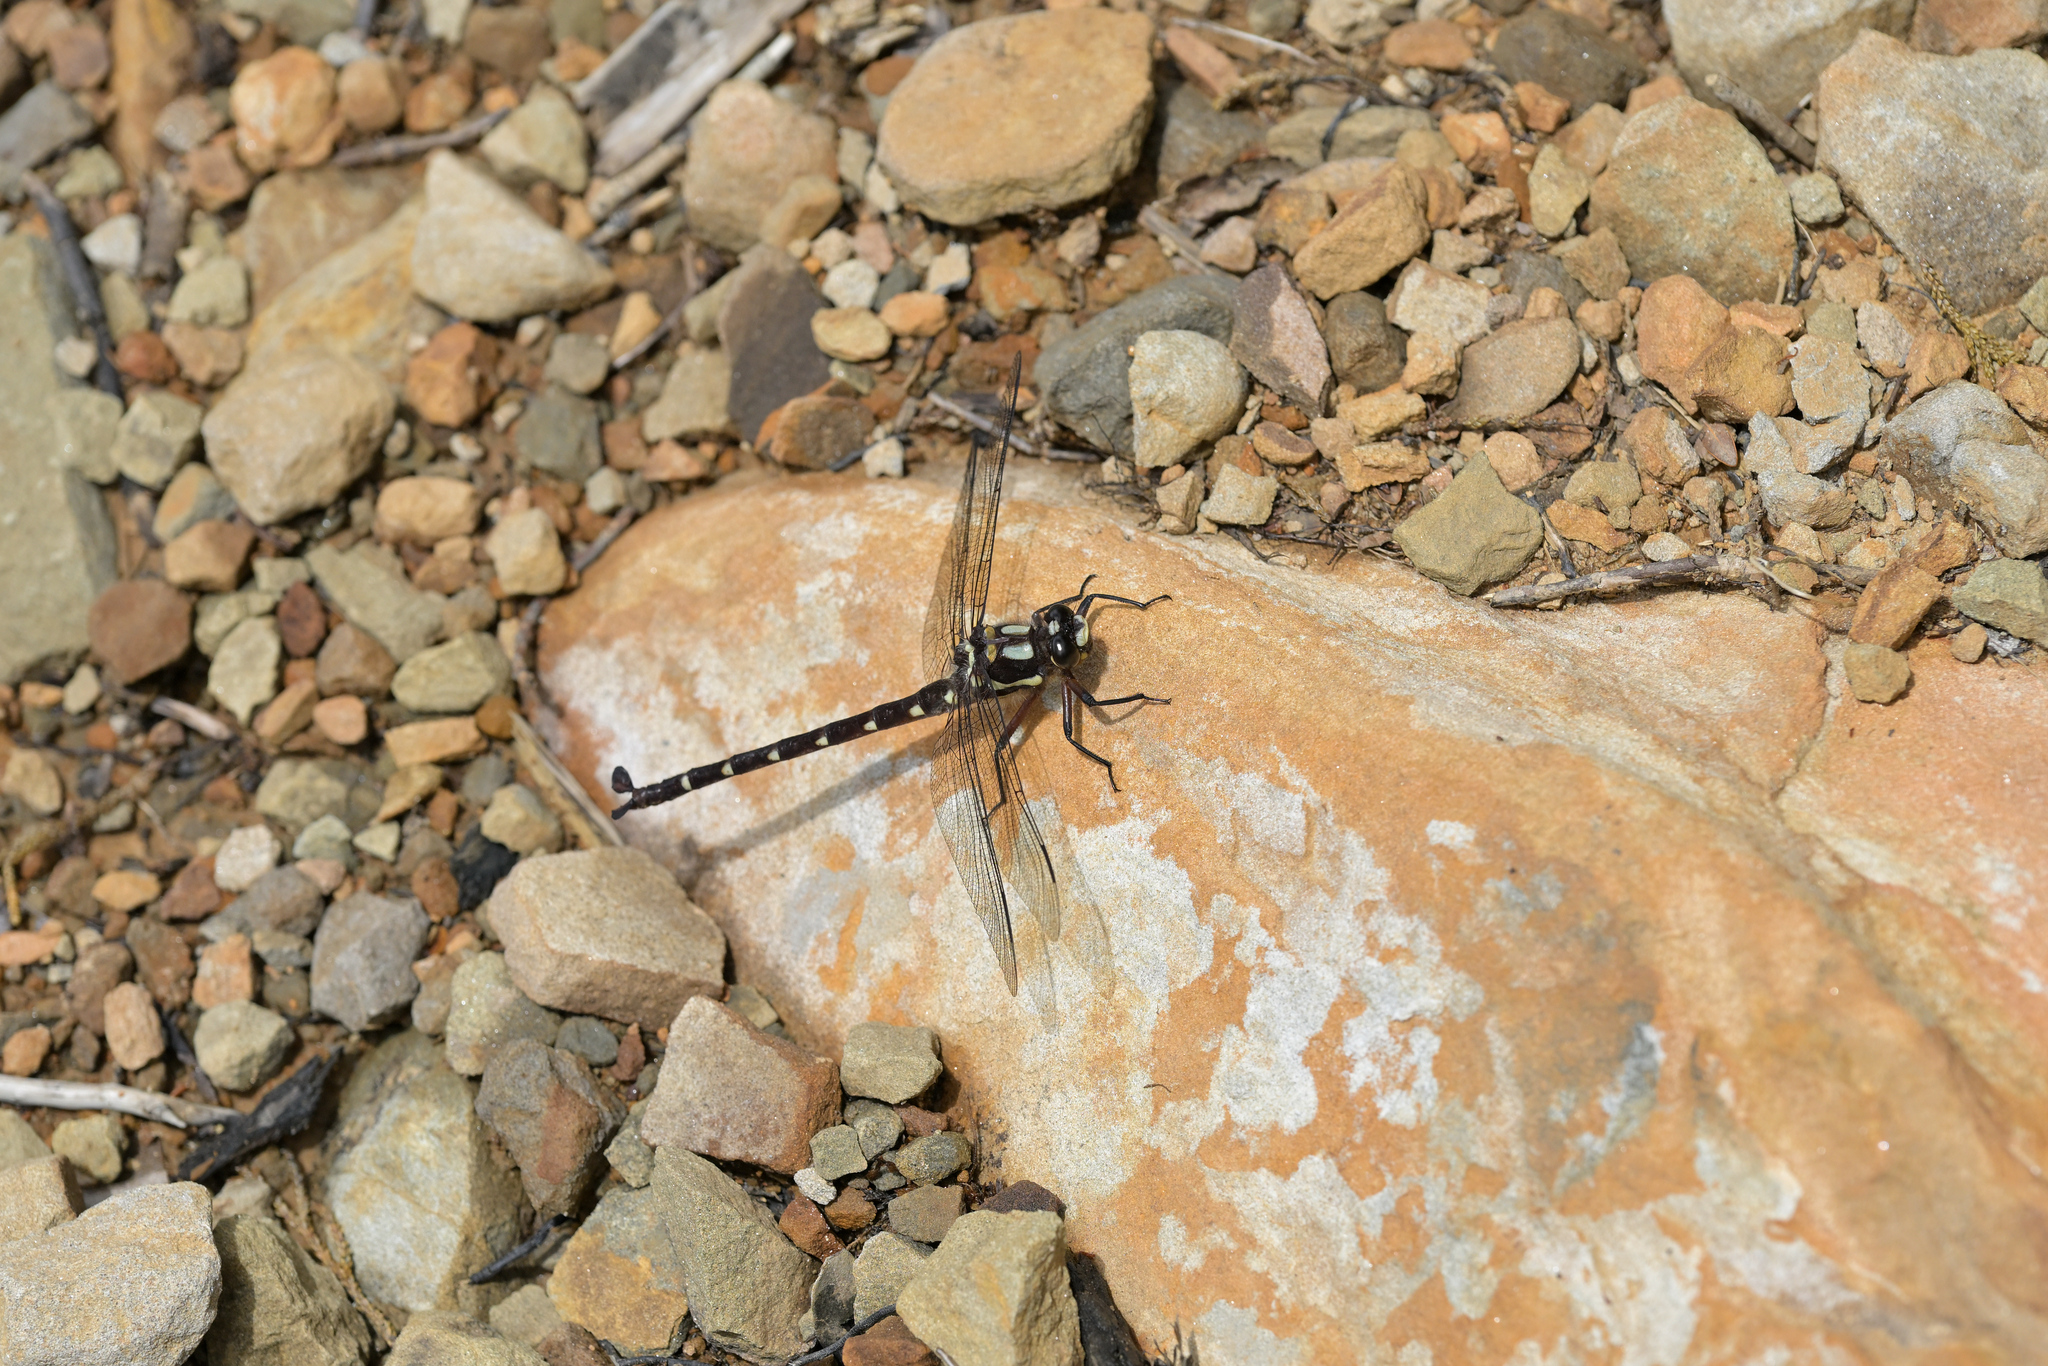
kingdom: Animalia
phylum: Arthropoda
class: Insecta
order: Odonata
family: Petaluridae
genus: Uropetala
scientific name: Uropetala carovei
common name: Bush giant dragonfly
